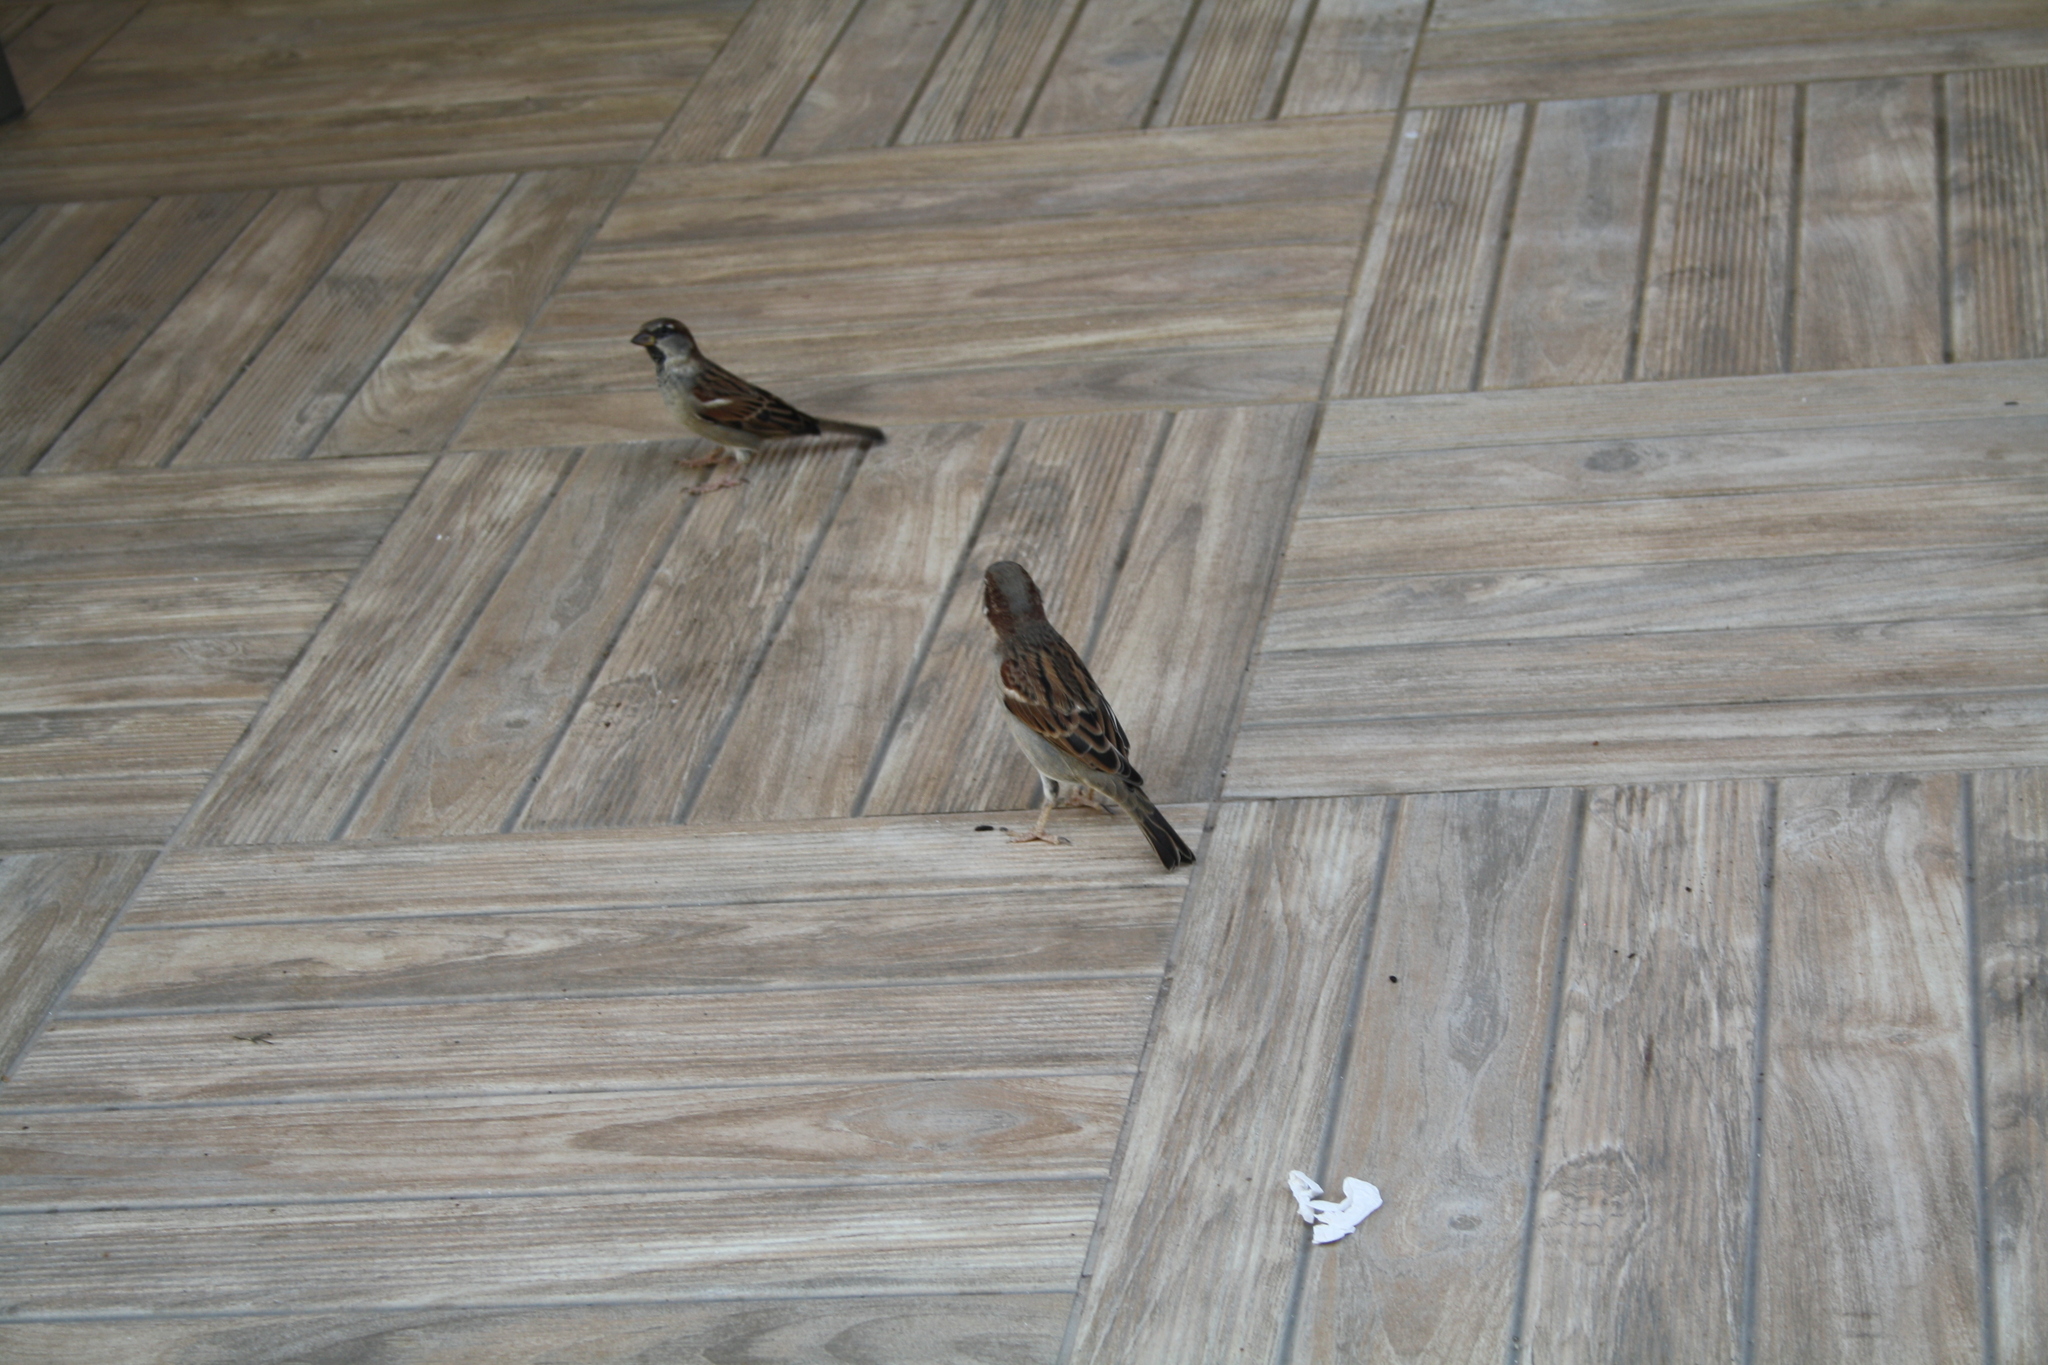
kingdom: Animalia
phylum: Chordata
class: Aves
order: Passeriformes
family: Passeridae
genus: Passer
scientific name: Passer domesticus
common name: House sparrow
